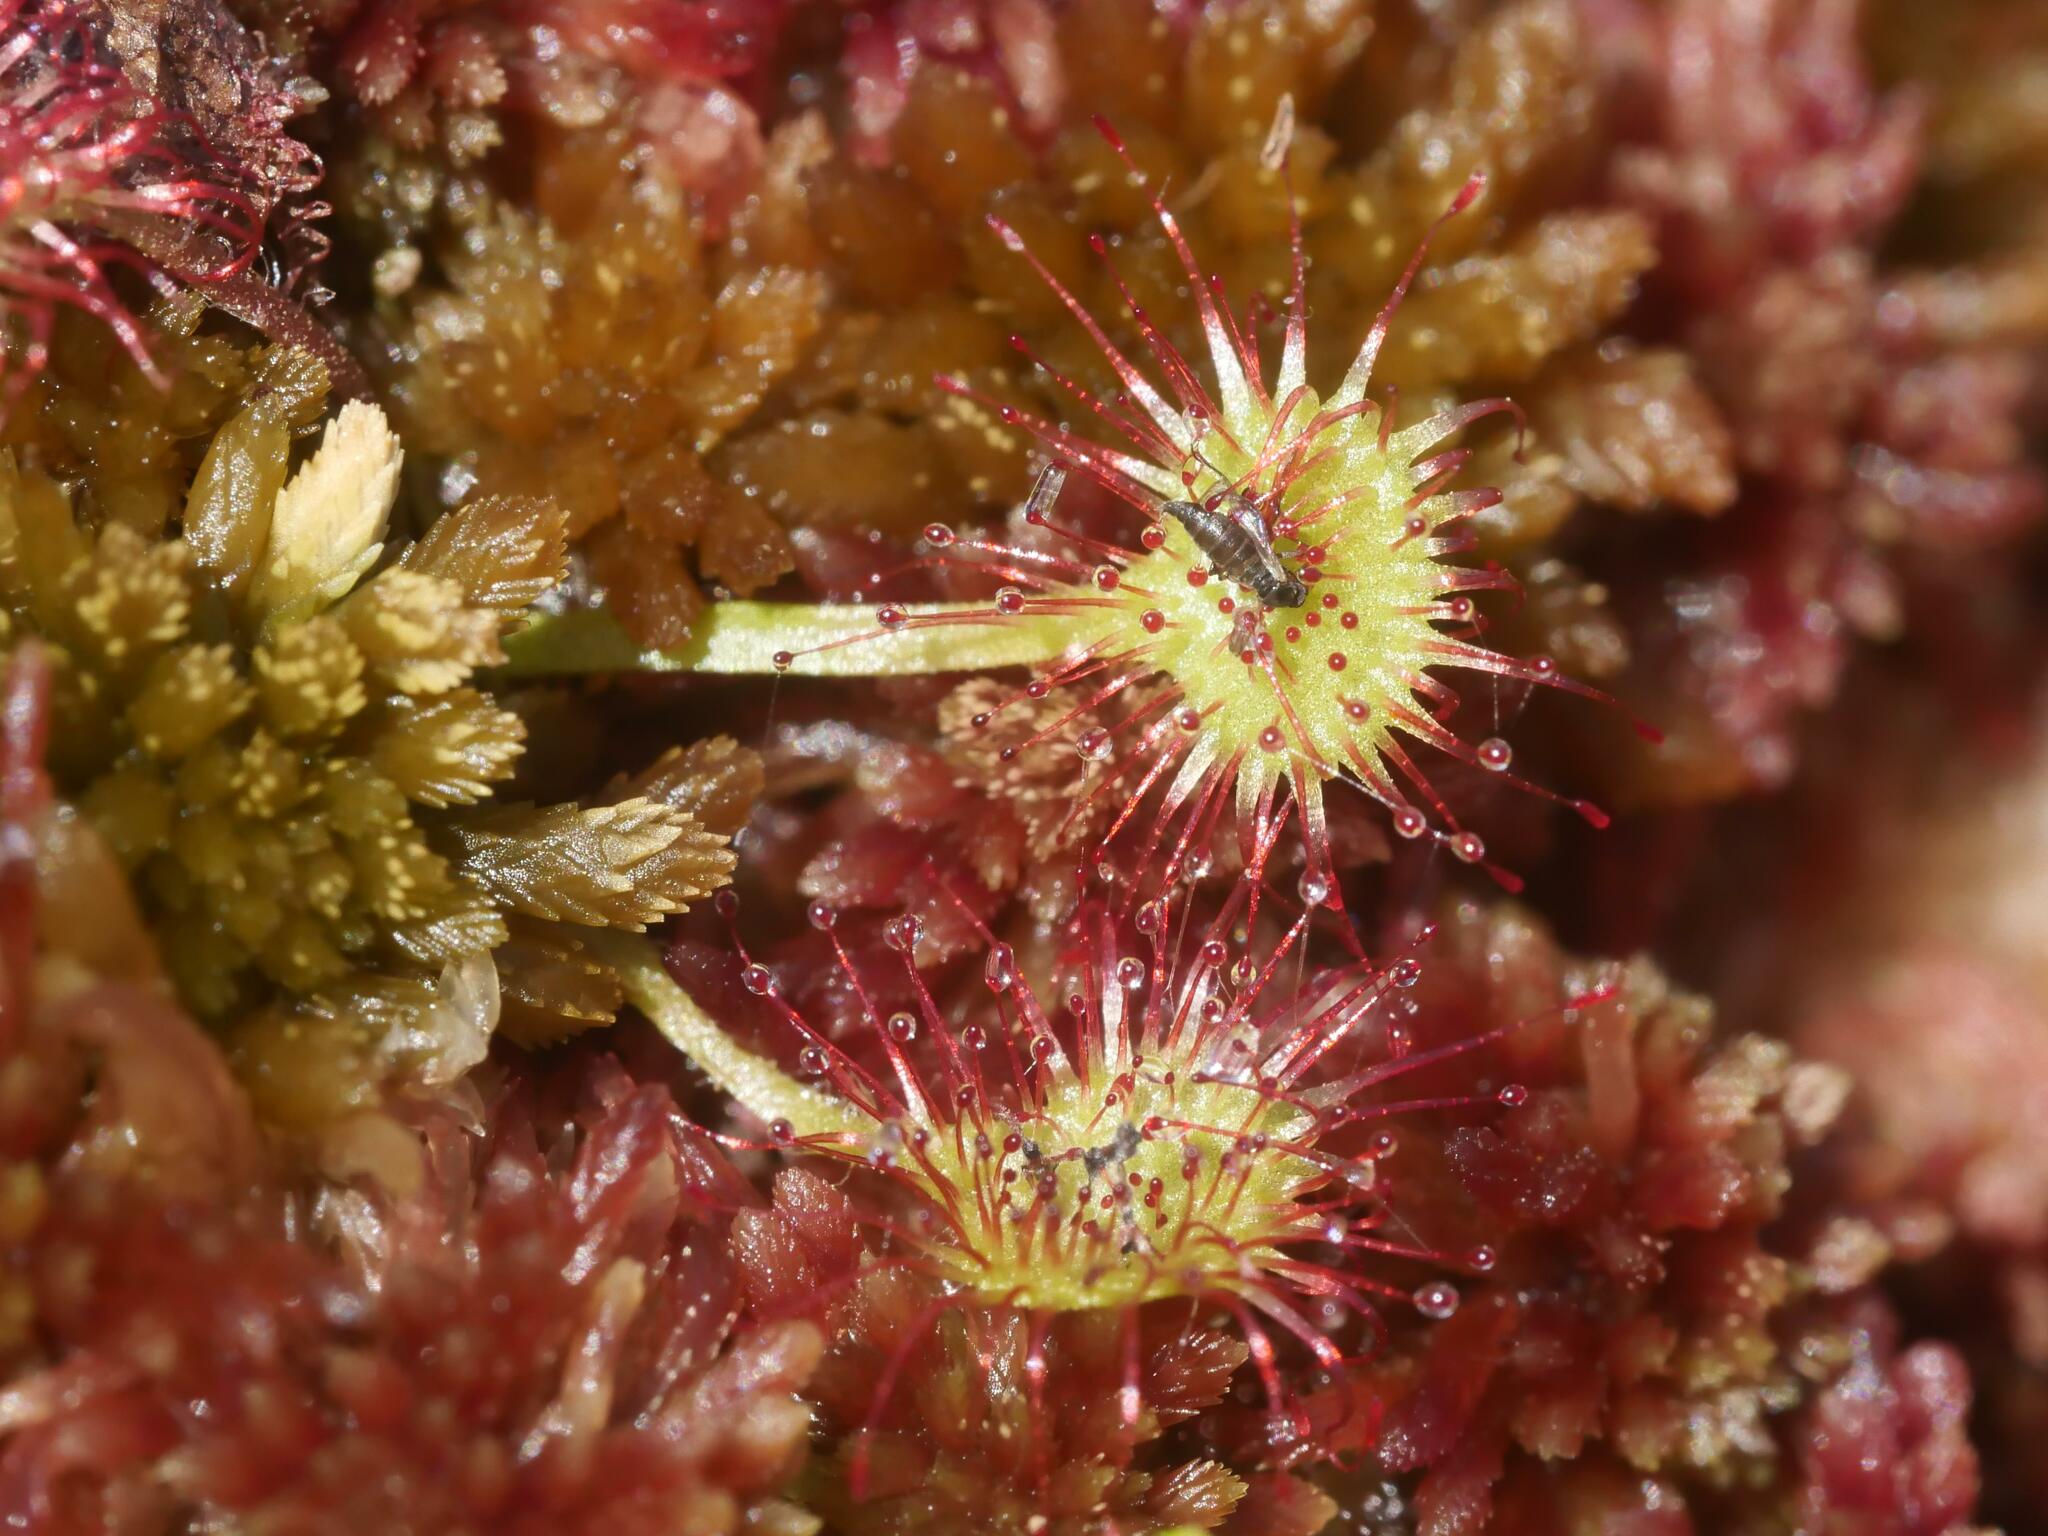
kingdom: Plantae
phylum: Tracheophyta
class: Magnoliopsida
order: Caryophyllales
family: Droseraceae
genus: Drosera
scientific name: Drosera rotundifolia
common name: Round-leaved sundew
